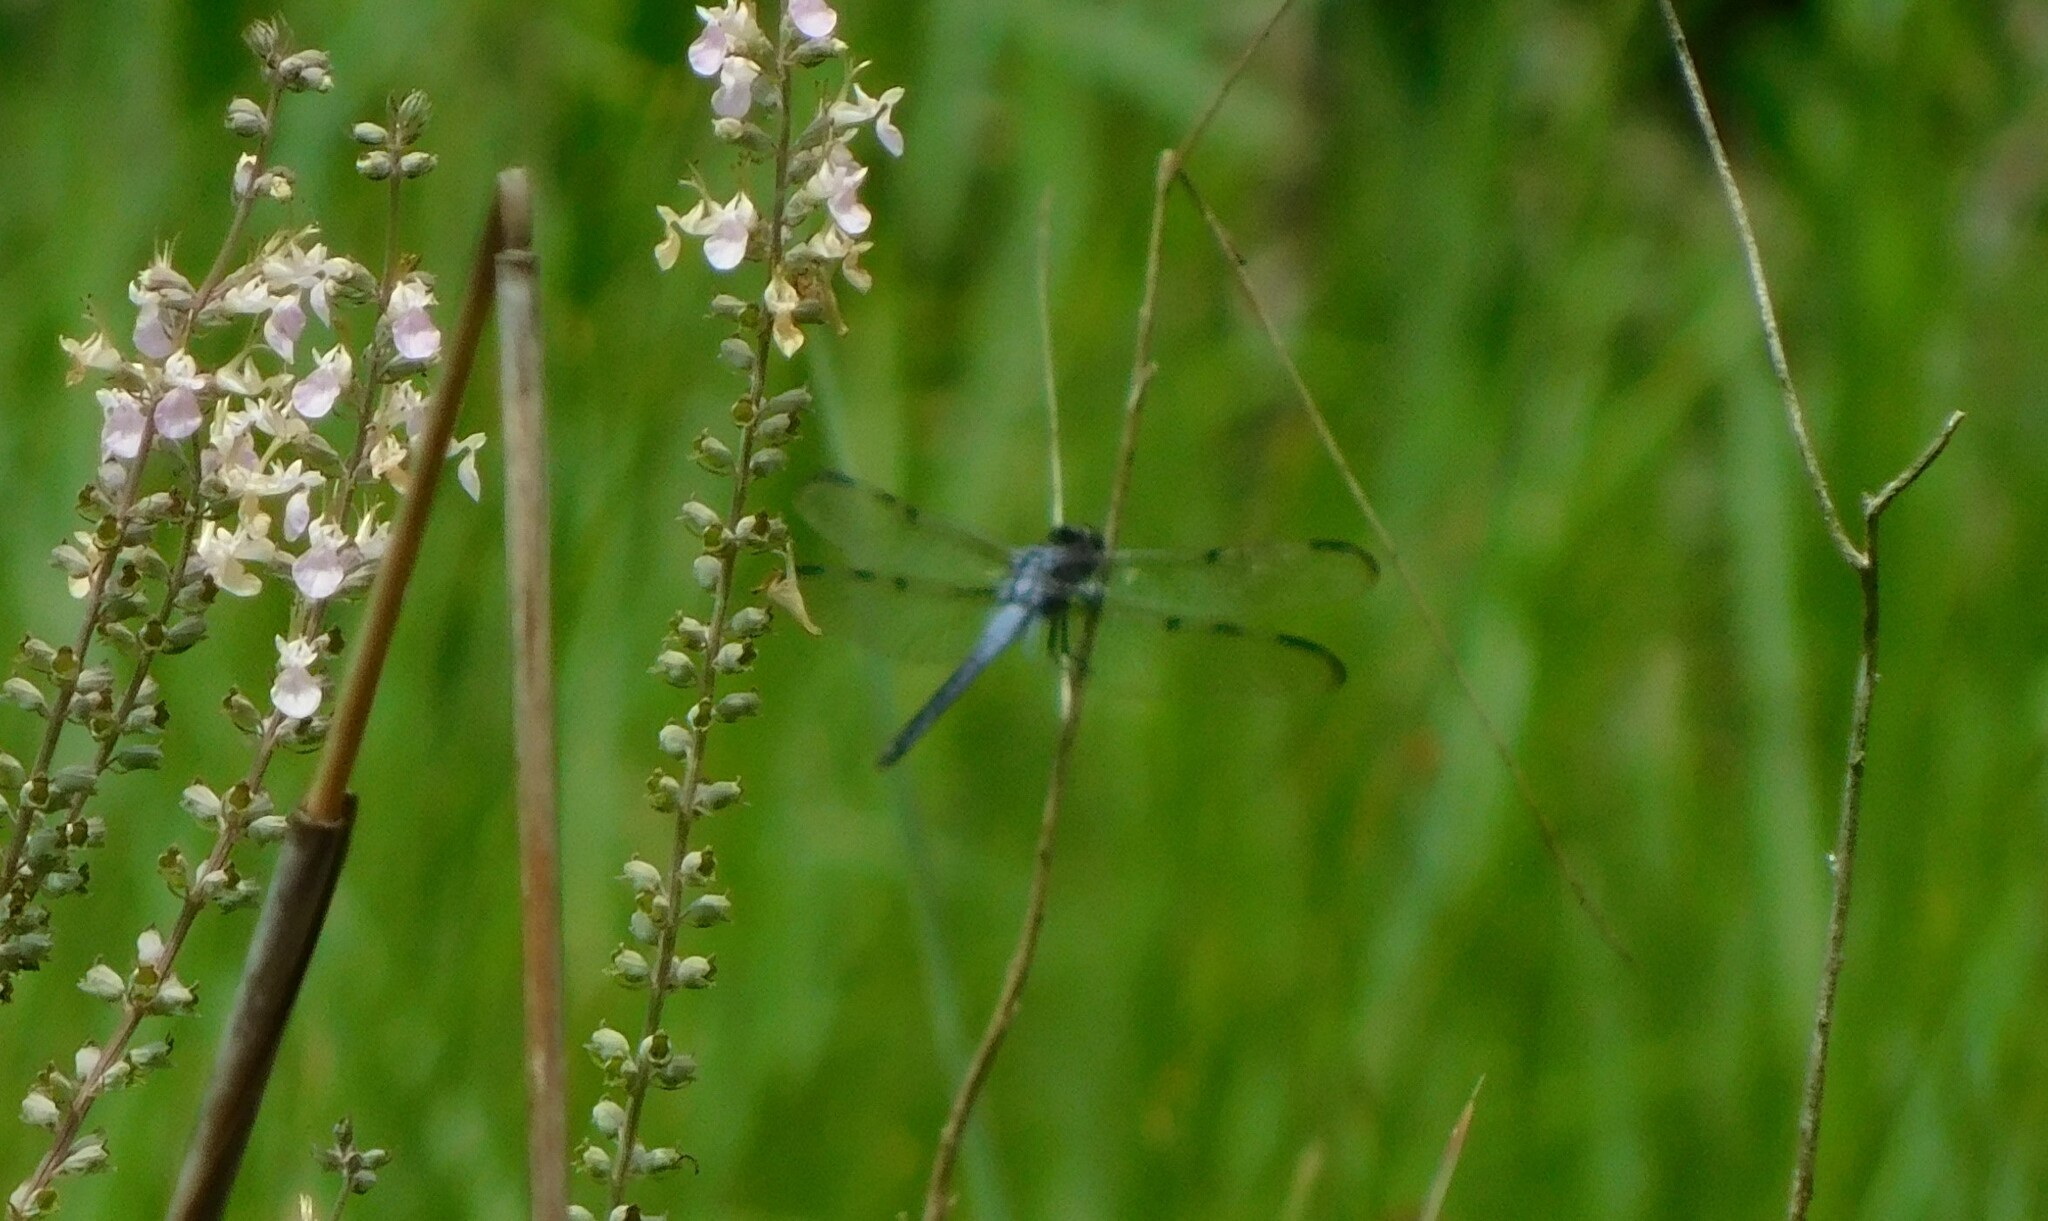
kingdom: Animalia
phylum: Arthropoda
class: Insecta
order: Odonata
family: Libellulidae
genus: Libellula
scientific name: Libellula axilena
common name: Bar-winged skimmer
